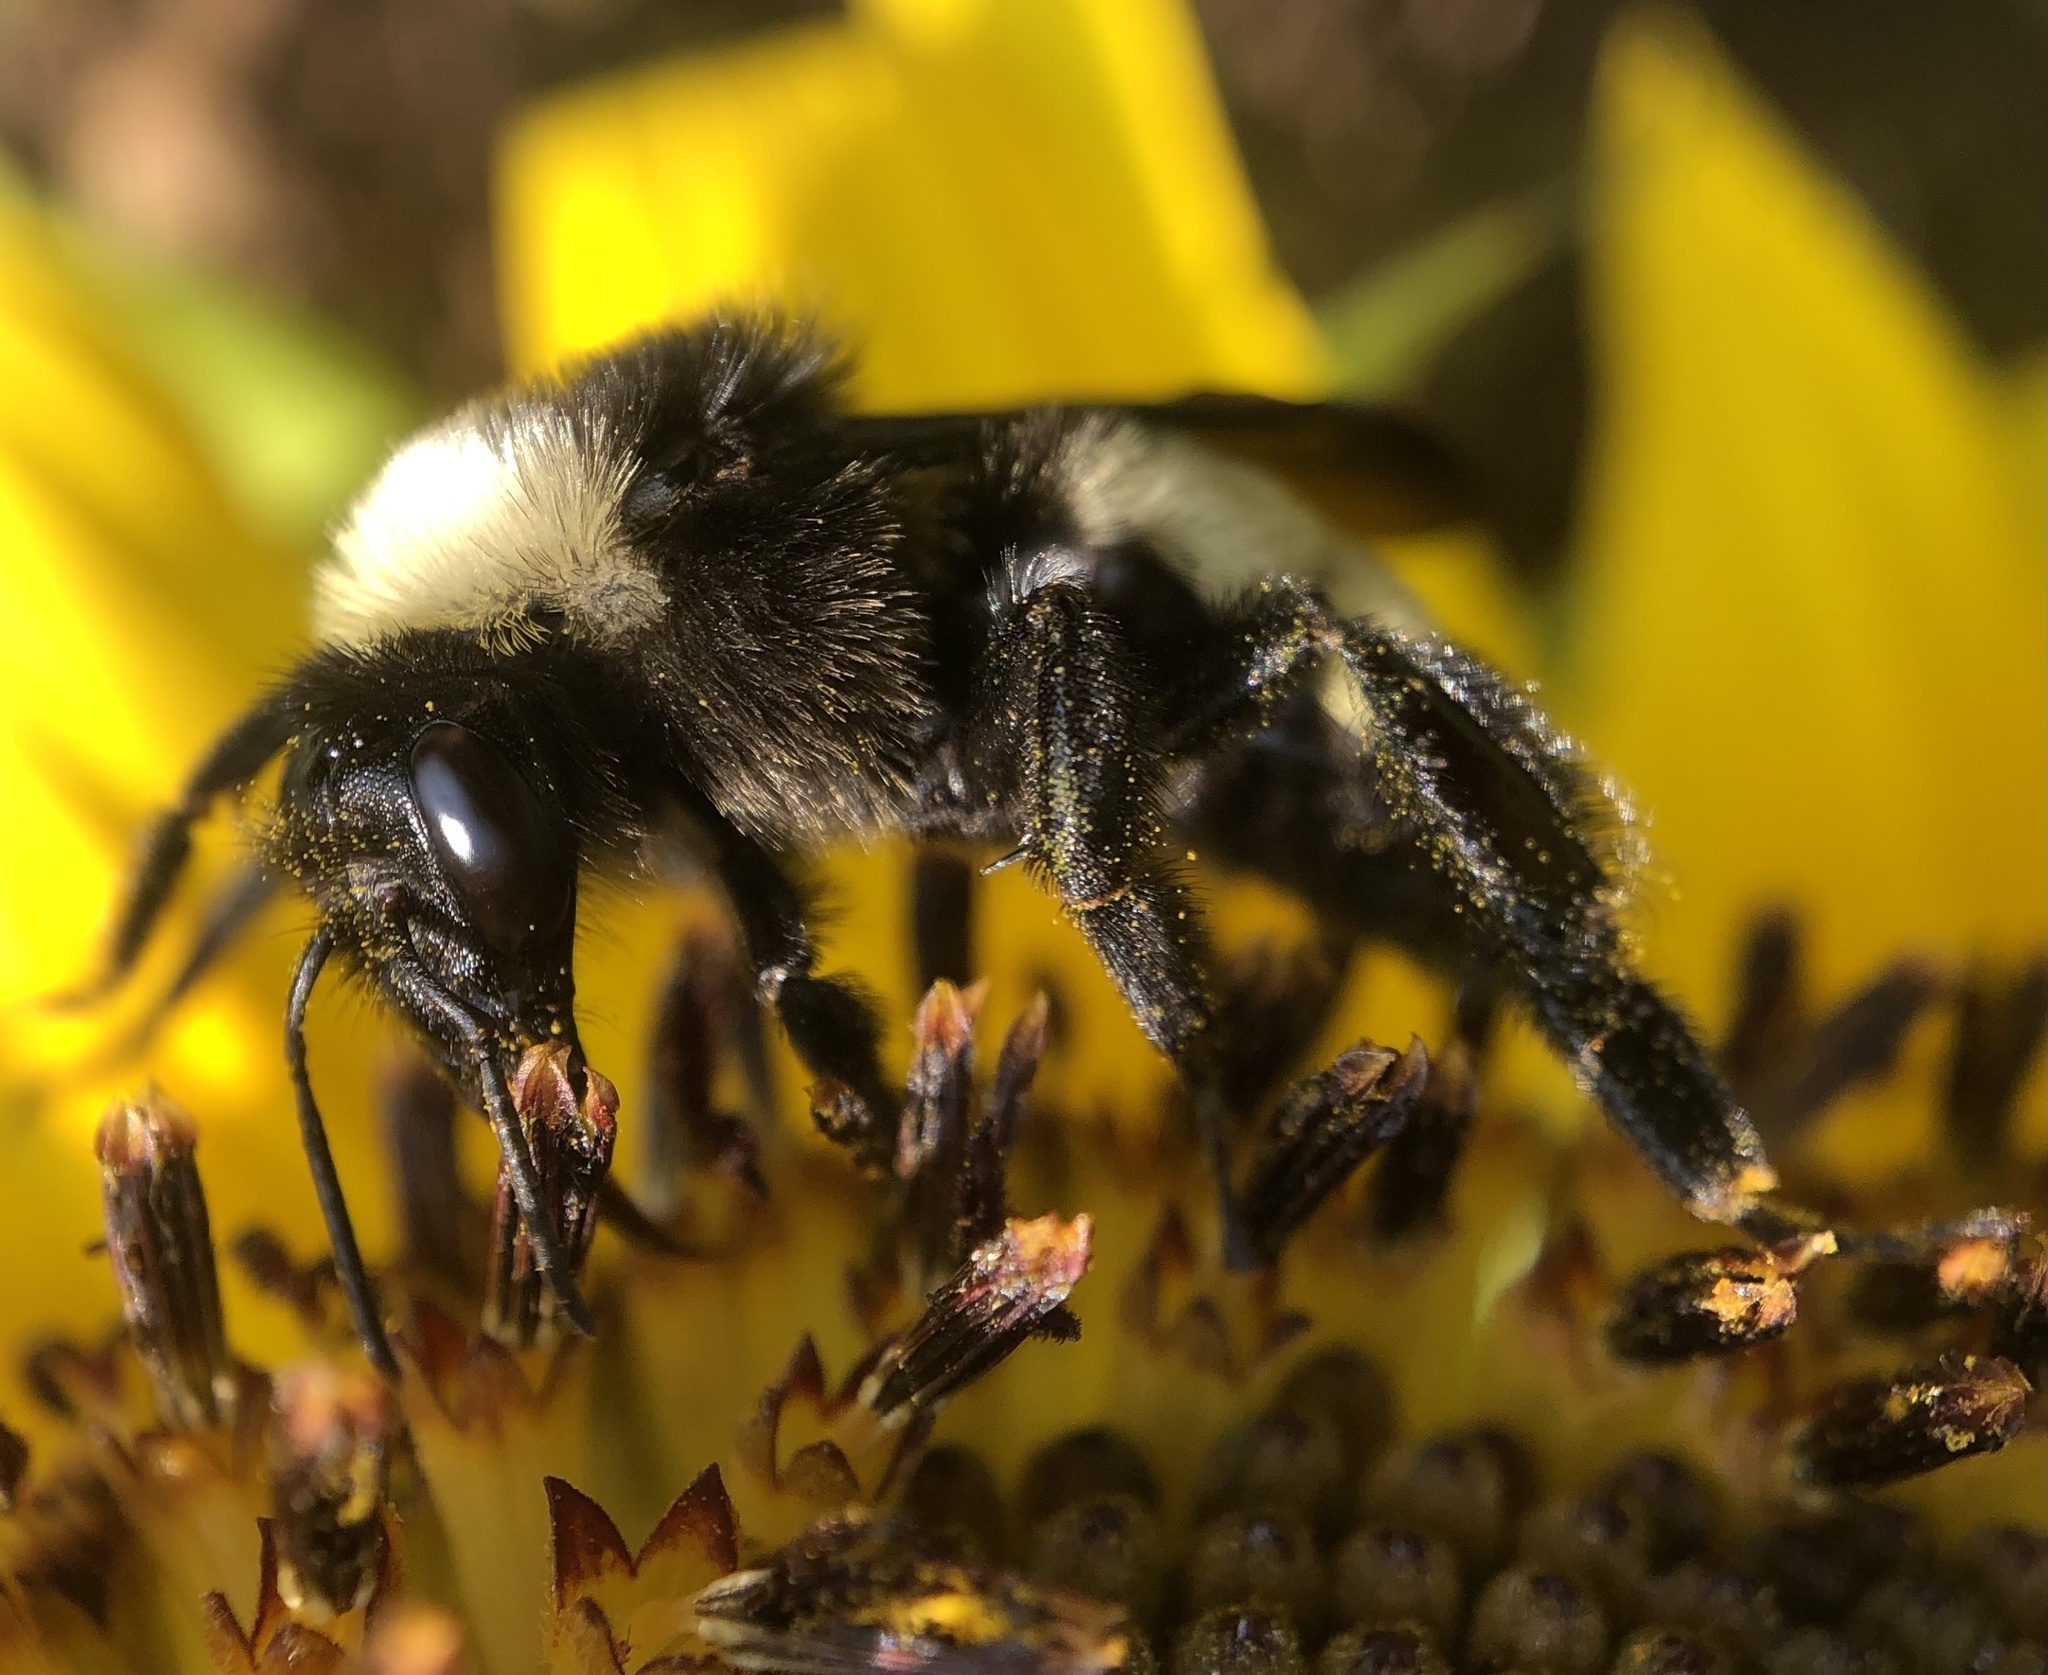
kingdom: Animalia
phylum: Arthropoda
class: Insecta
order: Hymenoptera
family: Apidae
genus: Bombus
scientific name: Bombus pensylvanicus
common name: Bumble bee
